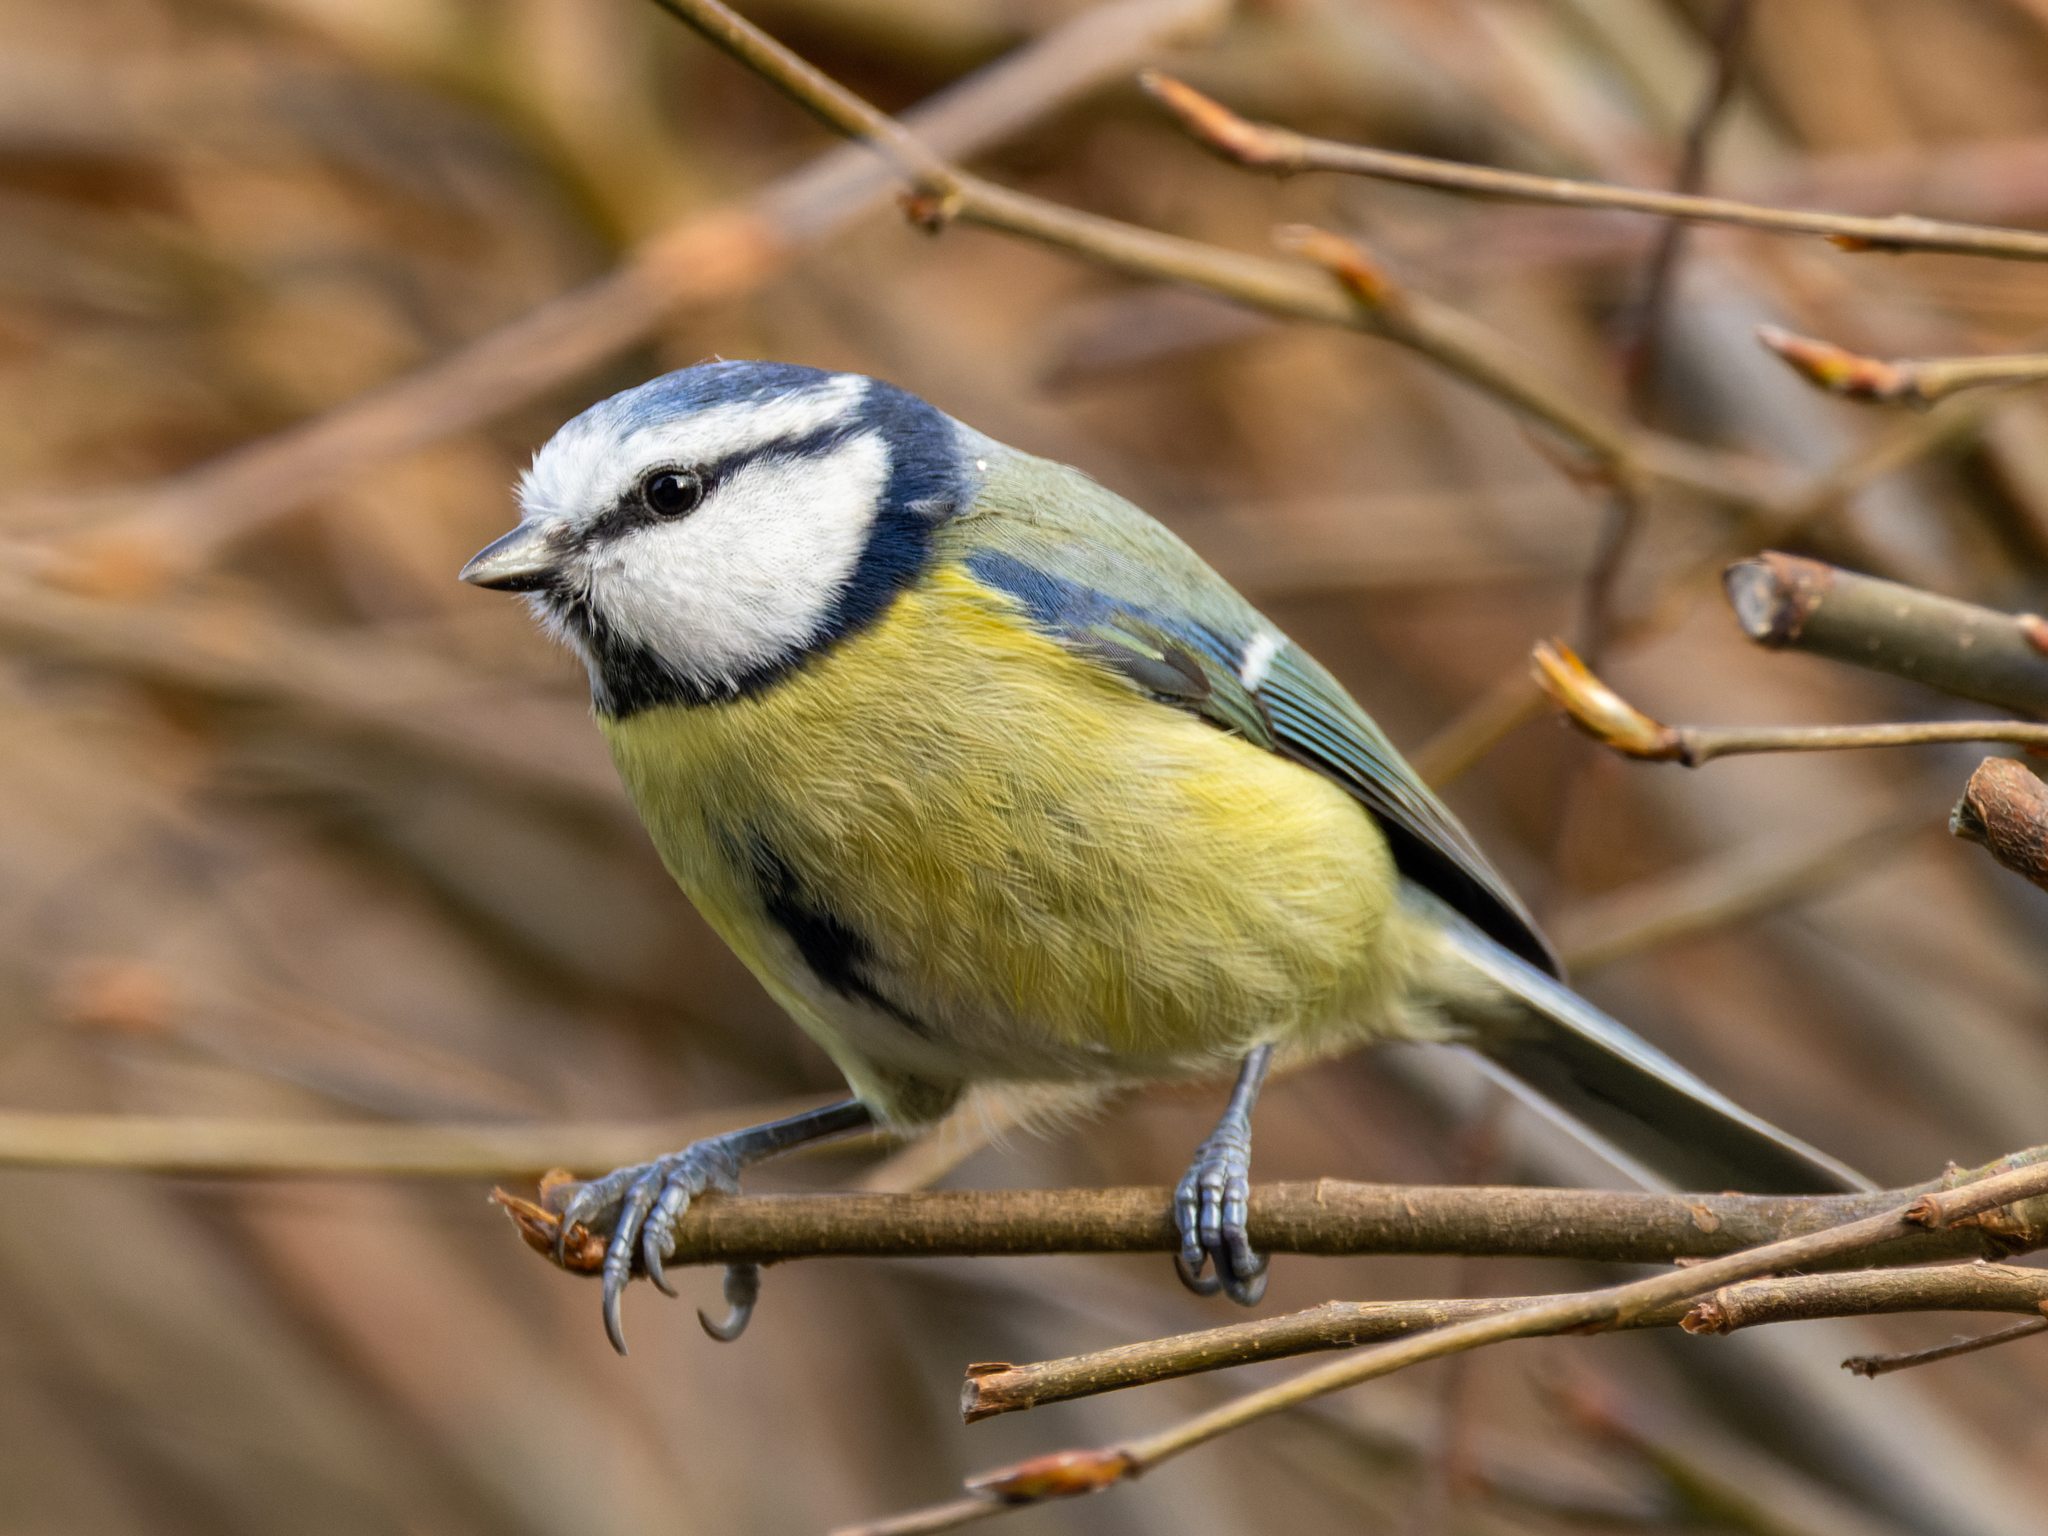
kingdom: Animalia
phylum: Chordata
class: Aves
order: Passeriformes
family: Paridae
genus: Cyanistes
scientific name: Cyanistes caeruleus
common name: Eurasian blue tit
